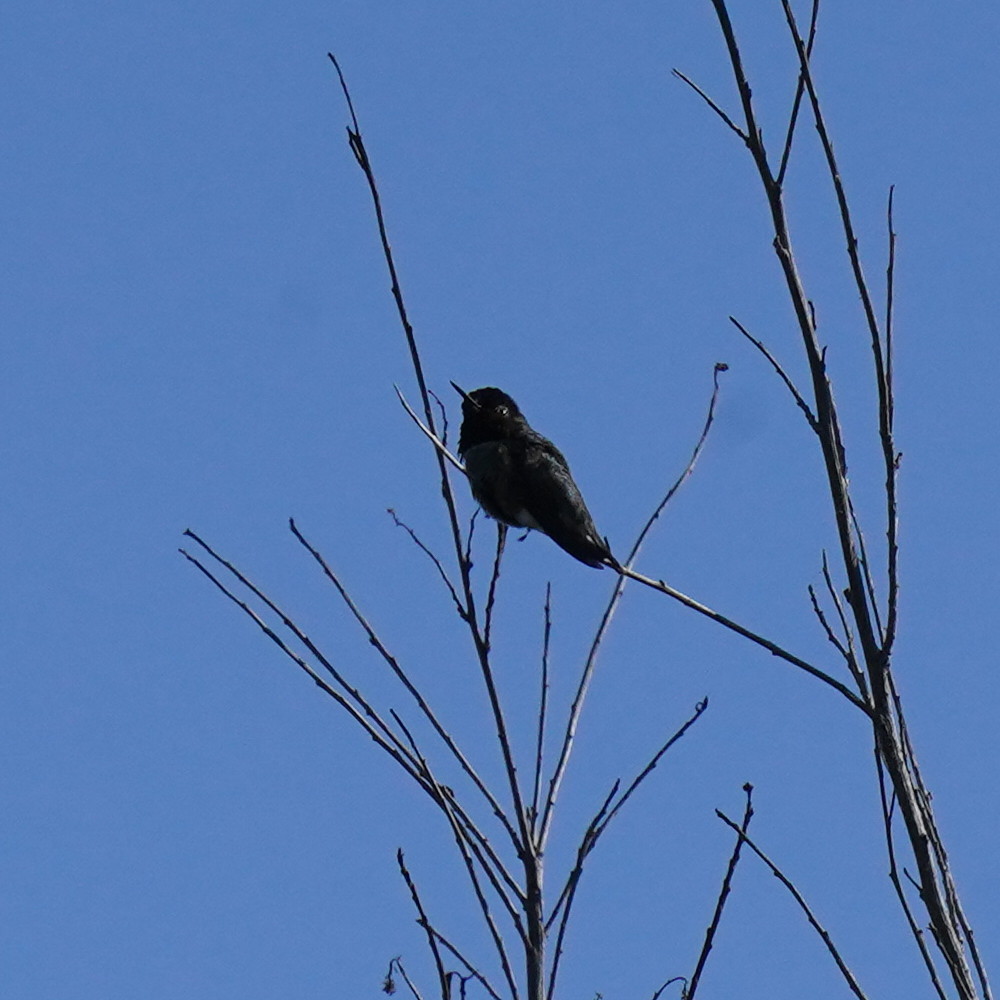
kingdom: Animalia
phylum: Chordata
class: Aves
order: Apodiformes
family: Trochilidae
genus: Calypte
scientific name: Calypte anna
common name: Anna's hummingbird
